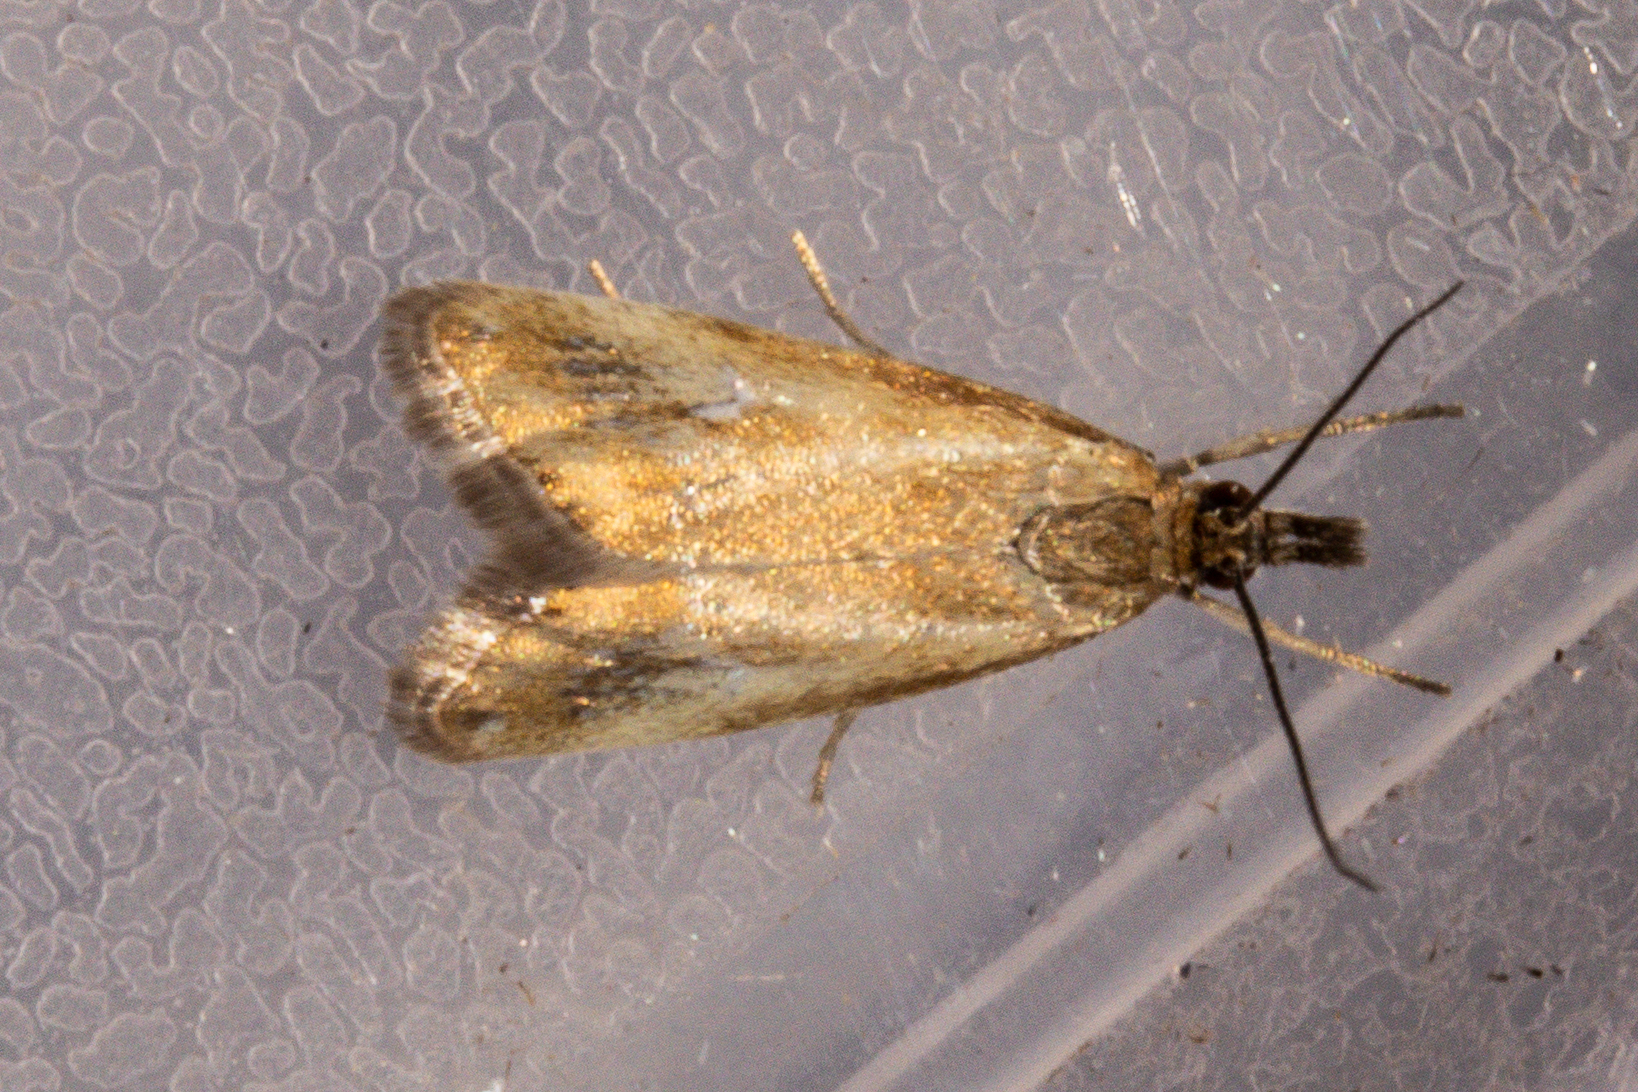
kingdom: Animalia
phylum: Arthropoda
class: Insecta
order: Lepidoptera
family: Crambidae
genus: Glaucocharis
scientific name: Glaucocharis helioctypa
